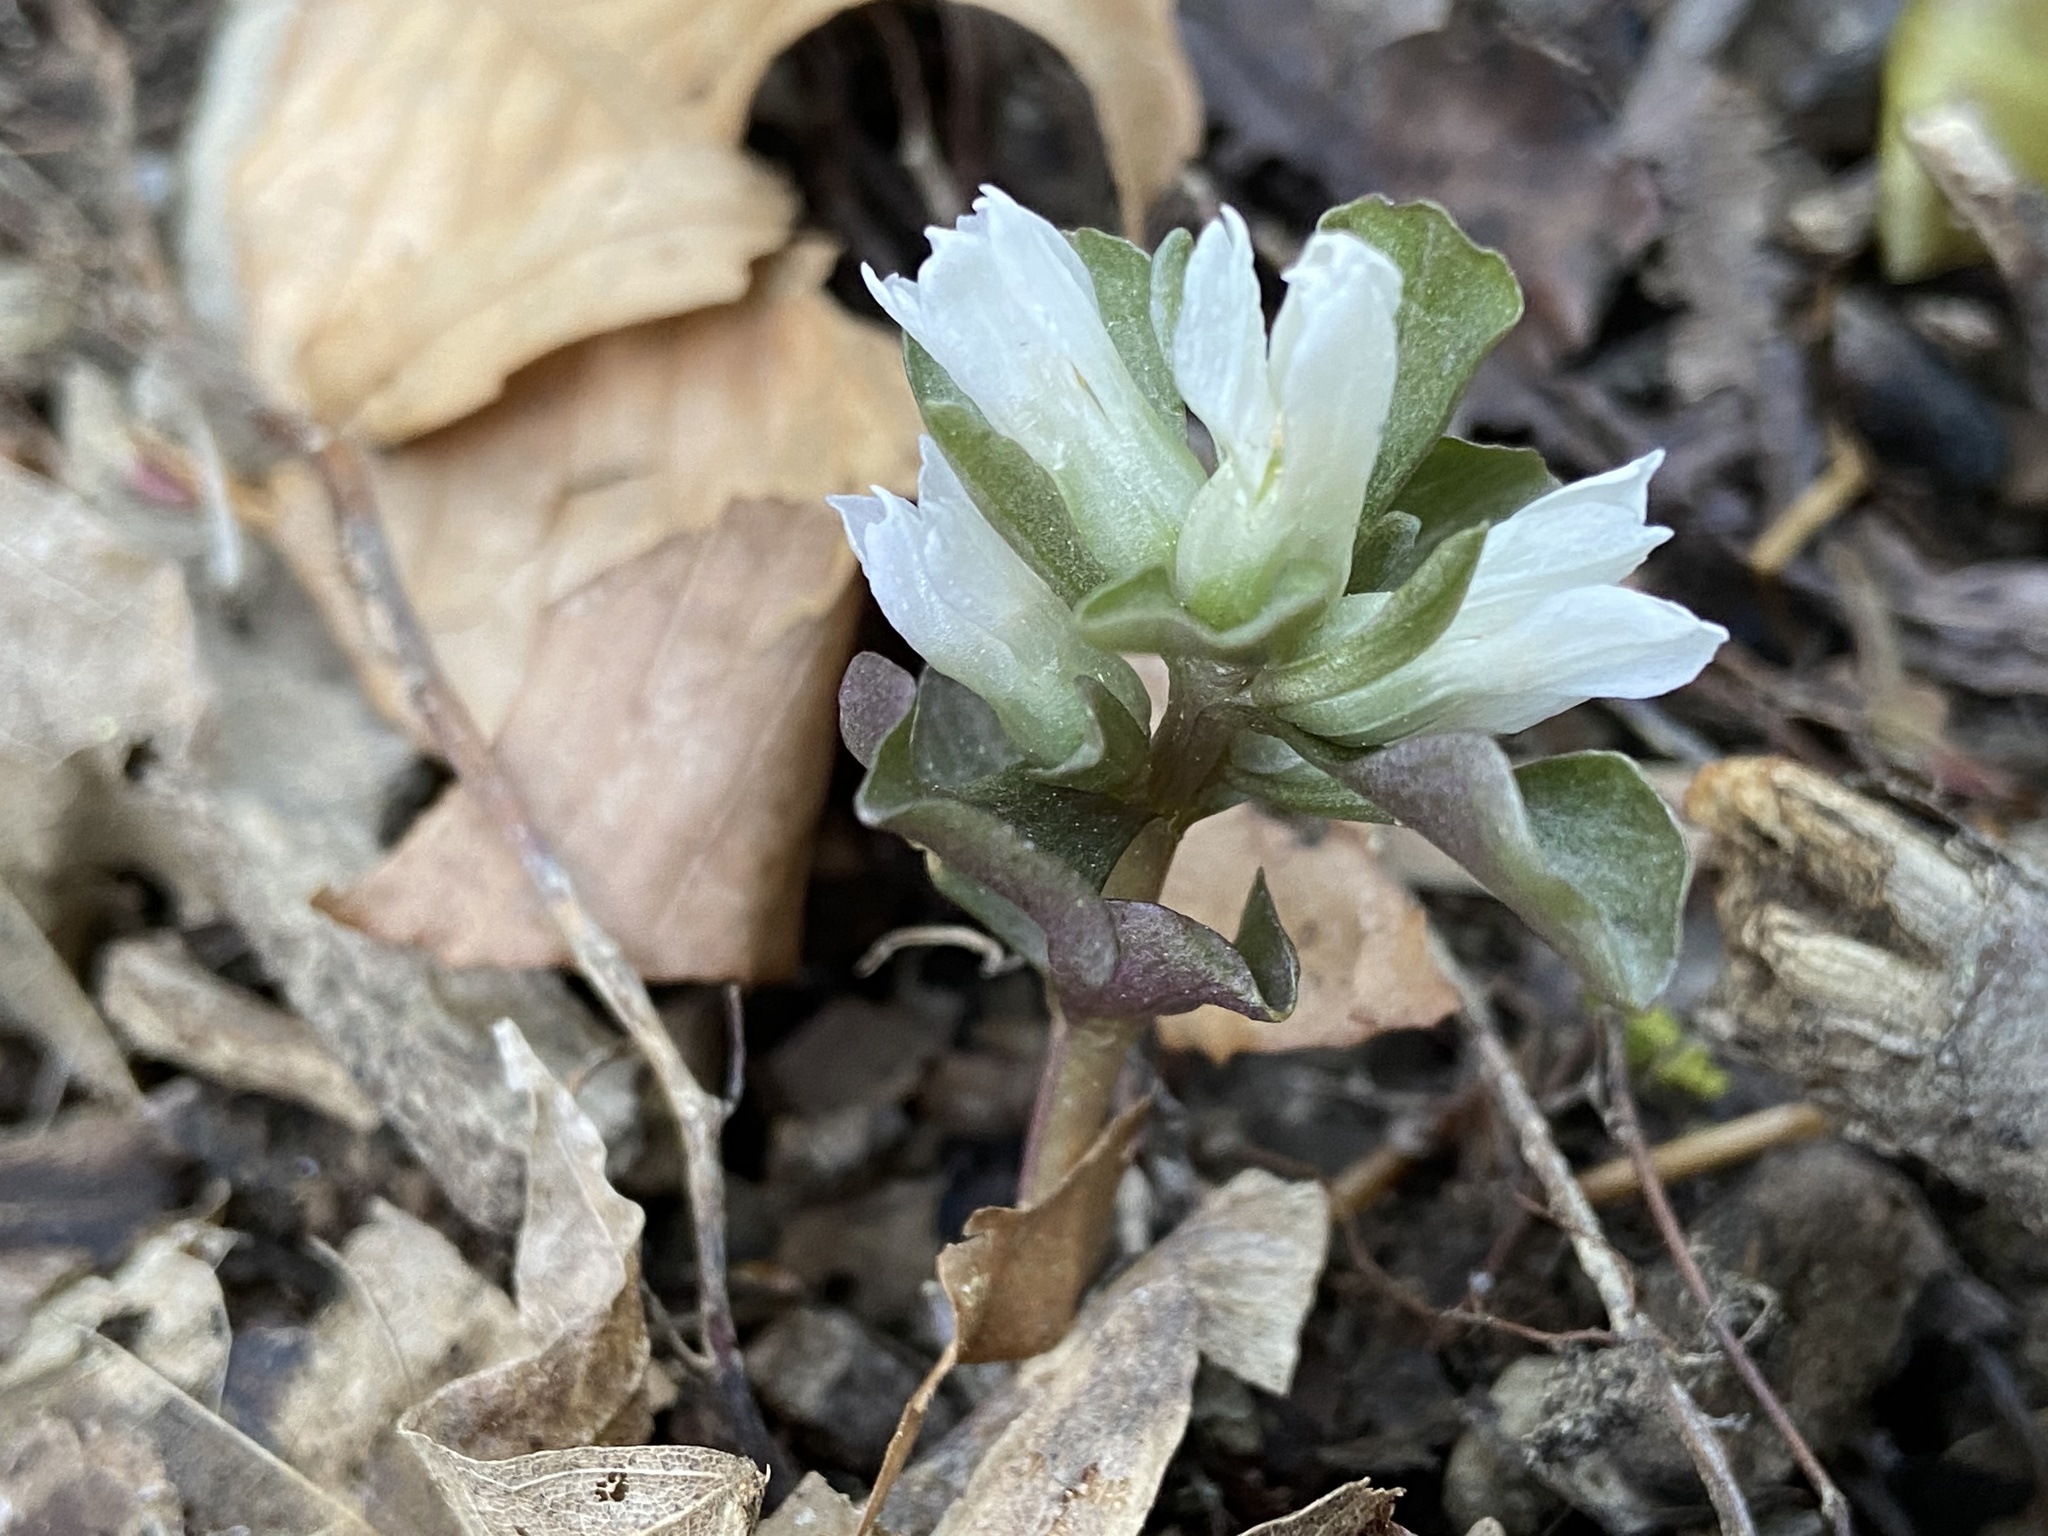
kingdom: Plantae
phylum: Tracheophyta
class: Magnoliopsida
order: Gentianales
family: Gentianaceae
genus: Obolaria
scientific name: Obolaria virginica
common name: Pennywort
